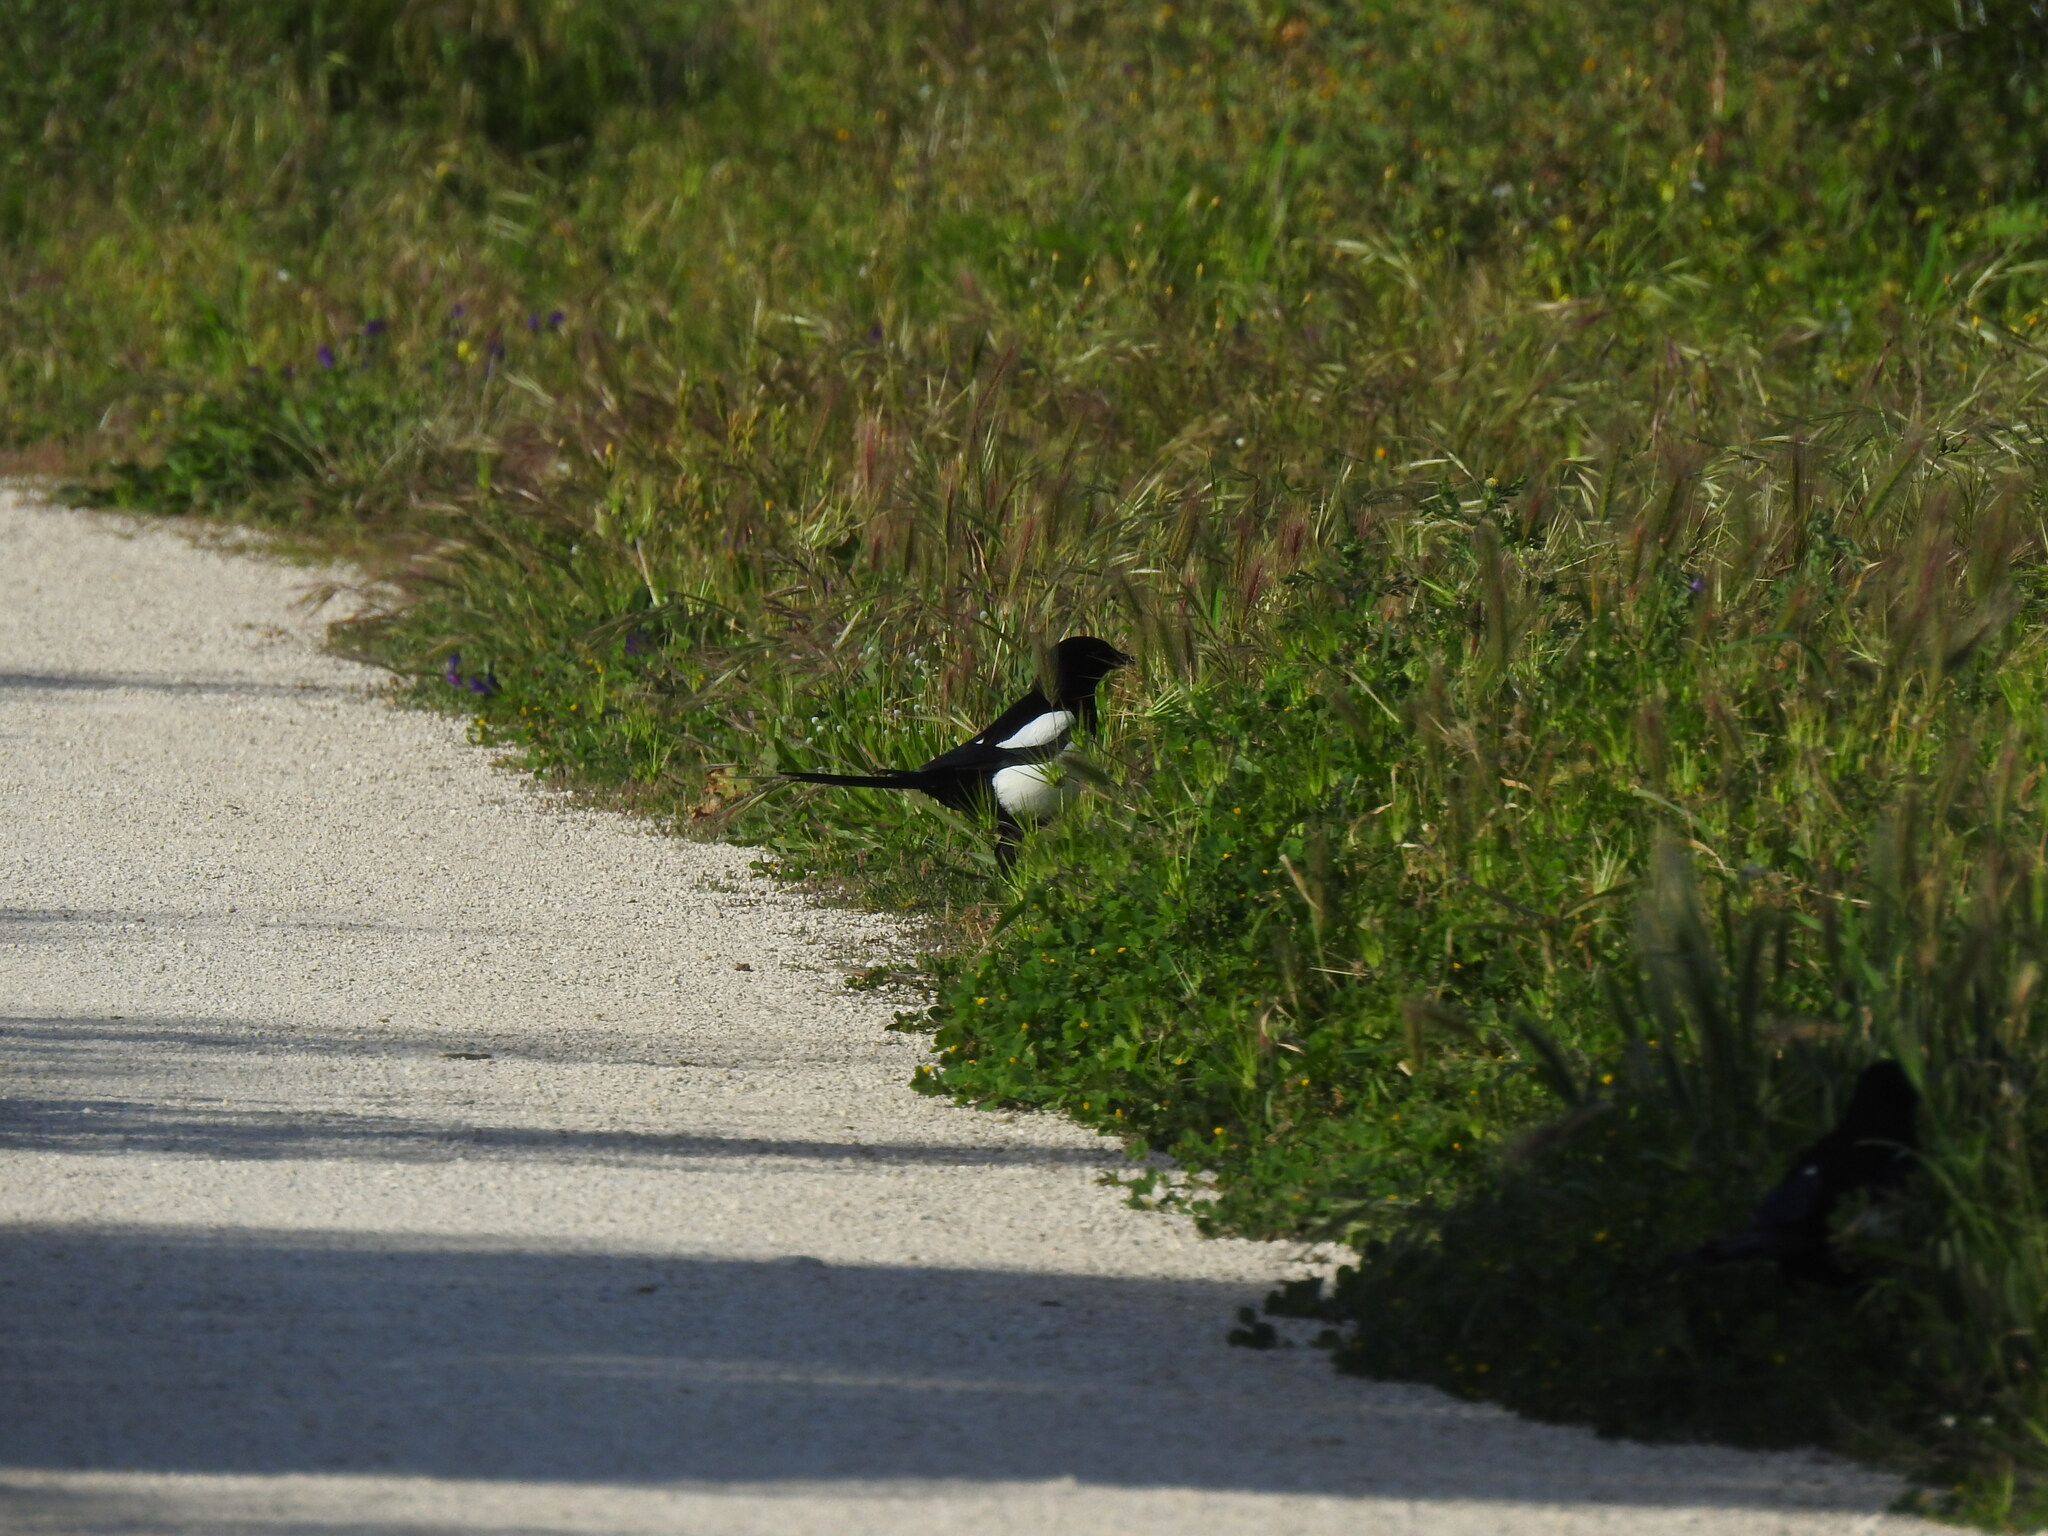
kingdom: Animalia
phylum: Chordata
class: Aves
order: Passeriformes
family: Corvidae
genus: Pica
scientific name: Pica pica
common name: Eurasian magpie
